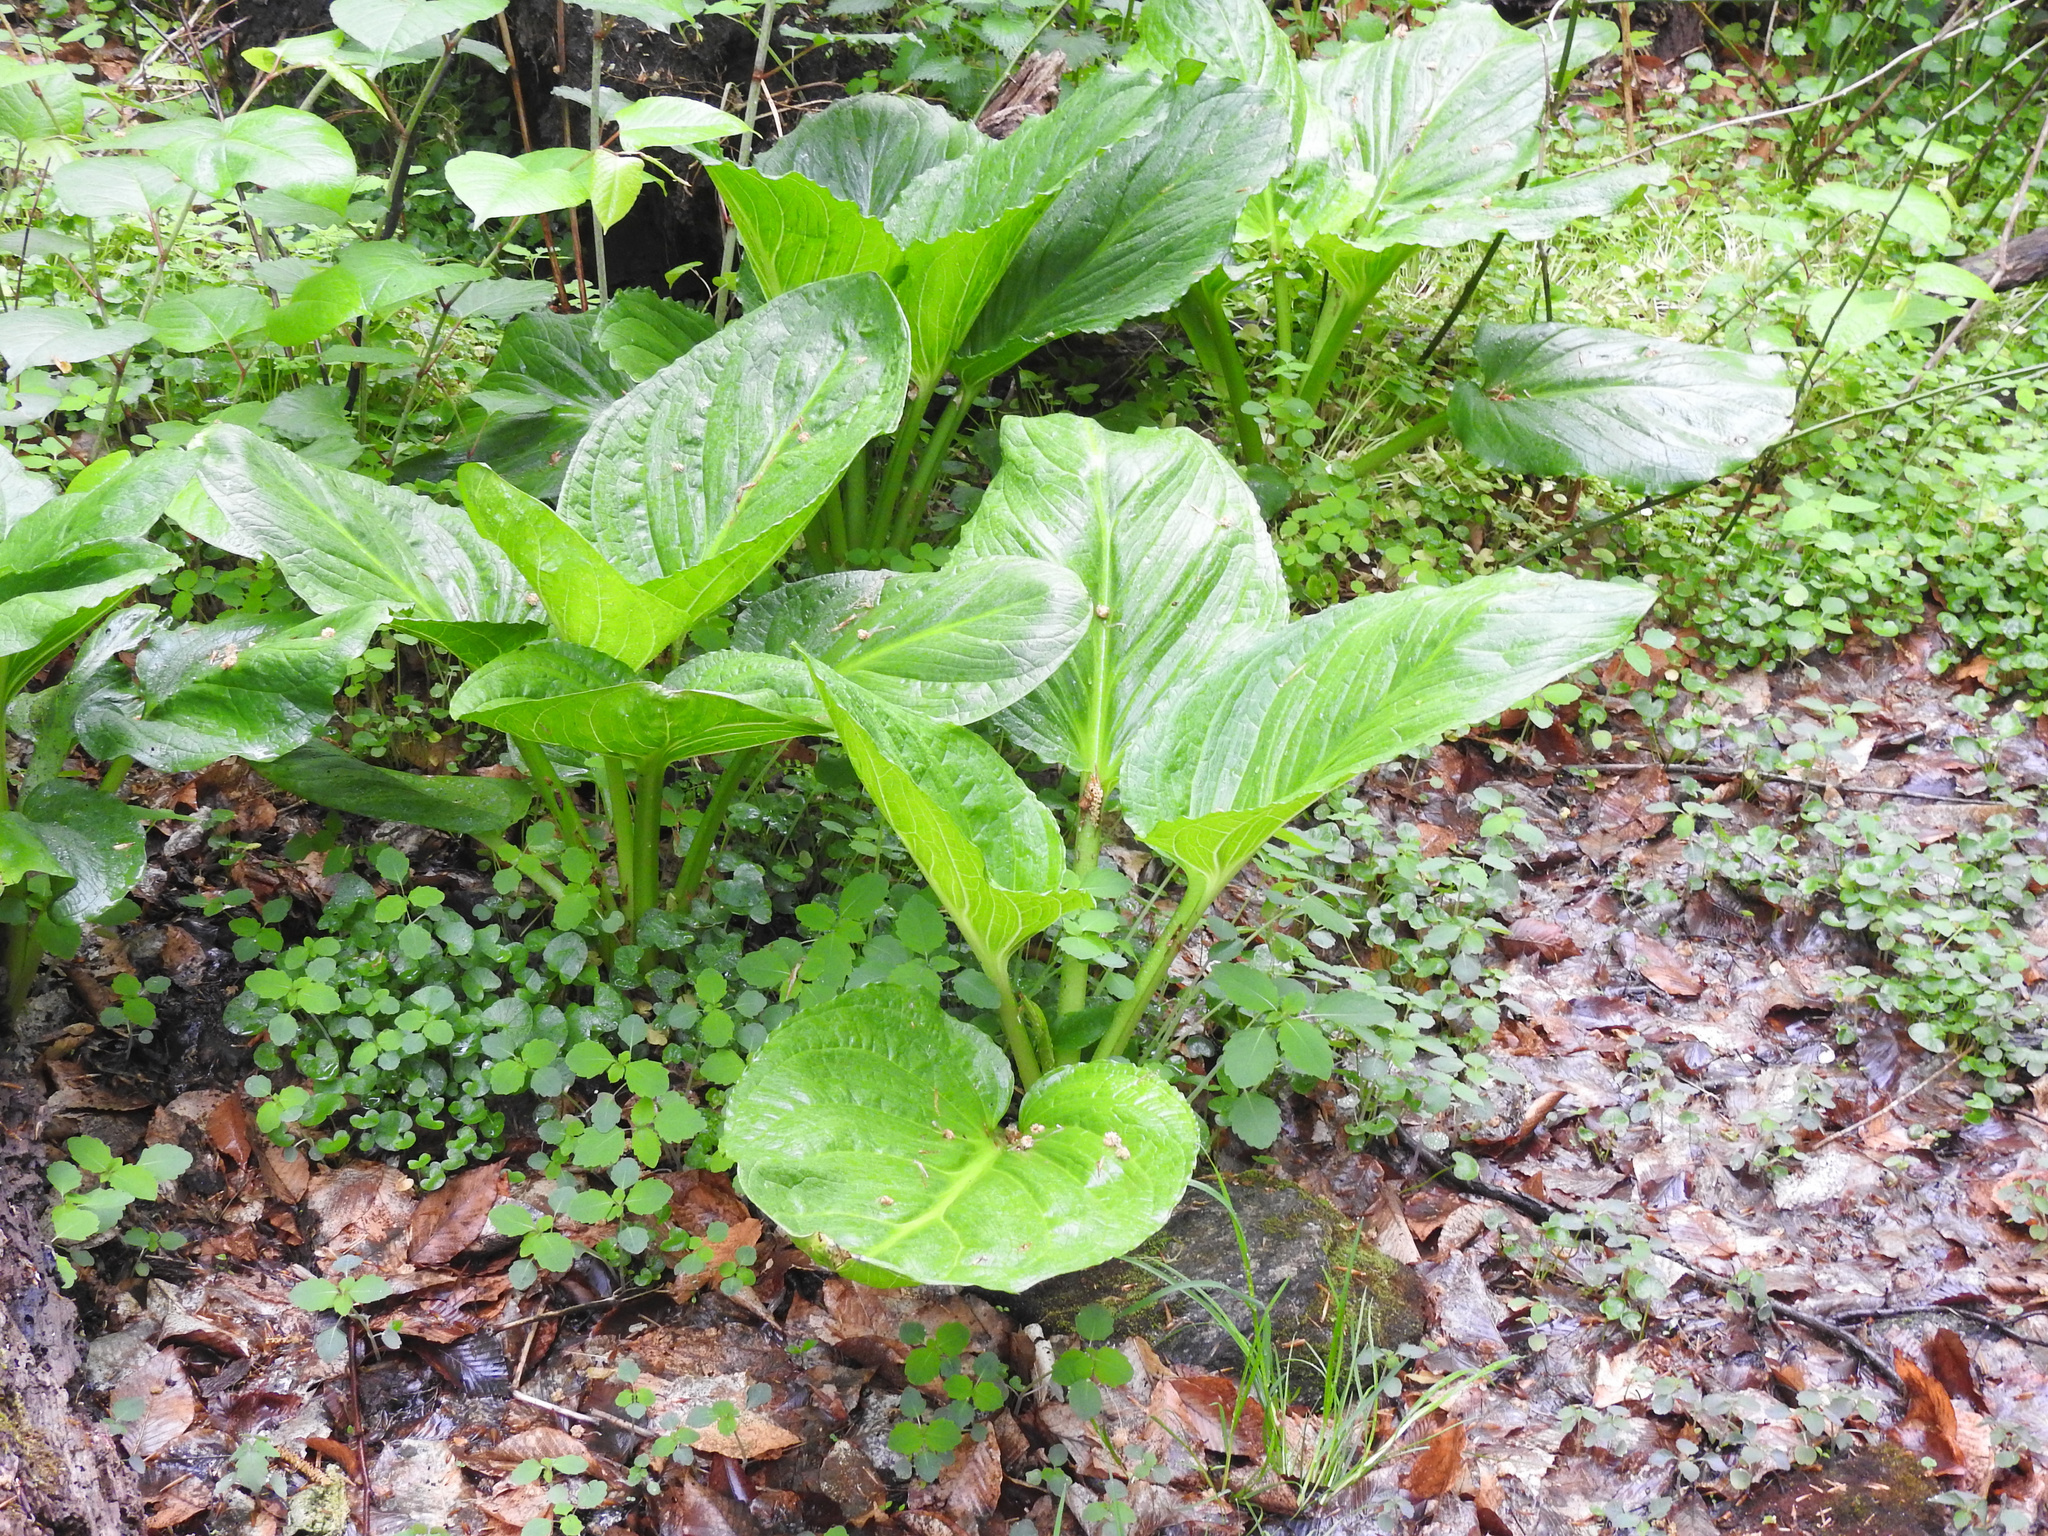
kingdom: Plantae
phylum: Tracheophyta
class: Liliopsida
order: Alismatales
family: Araceae
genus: Symplocarpus
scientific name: Symplocarpus foetidus
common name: Eastern skunk cabbage
